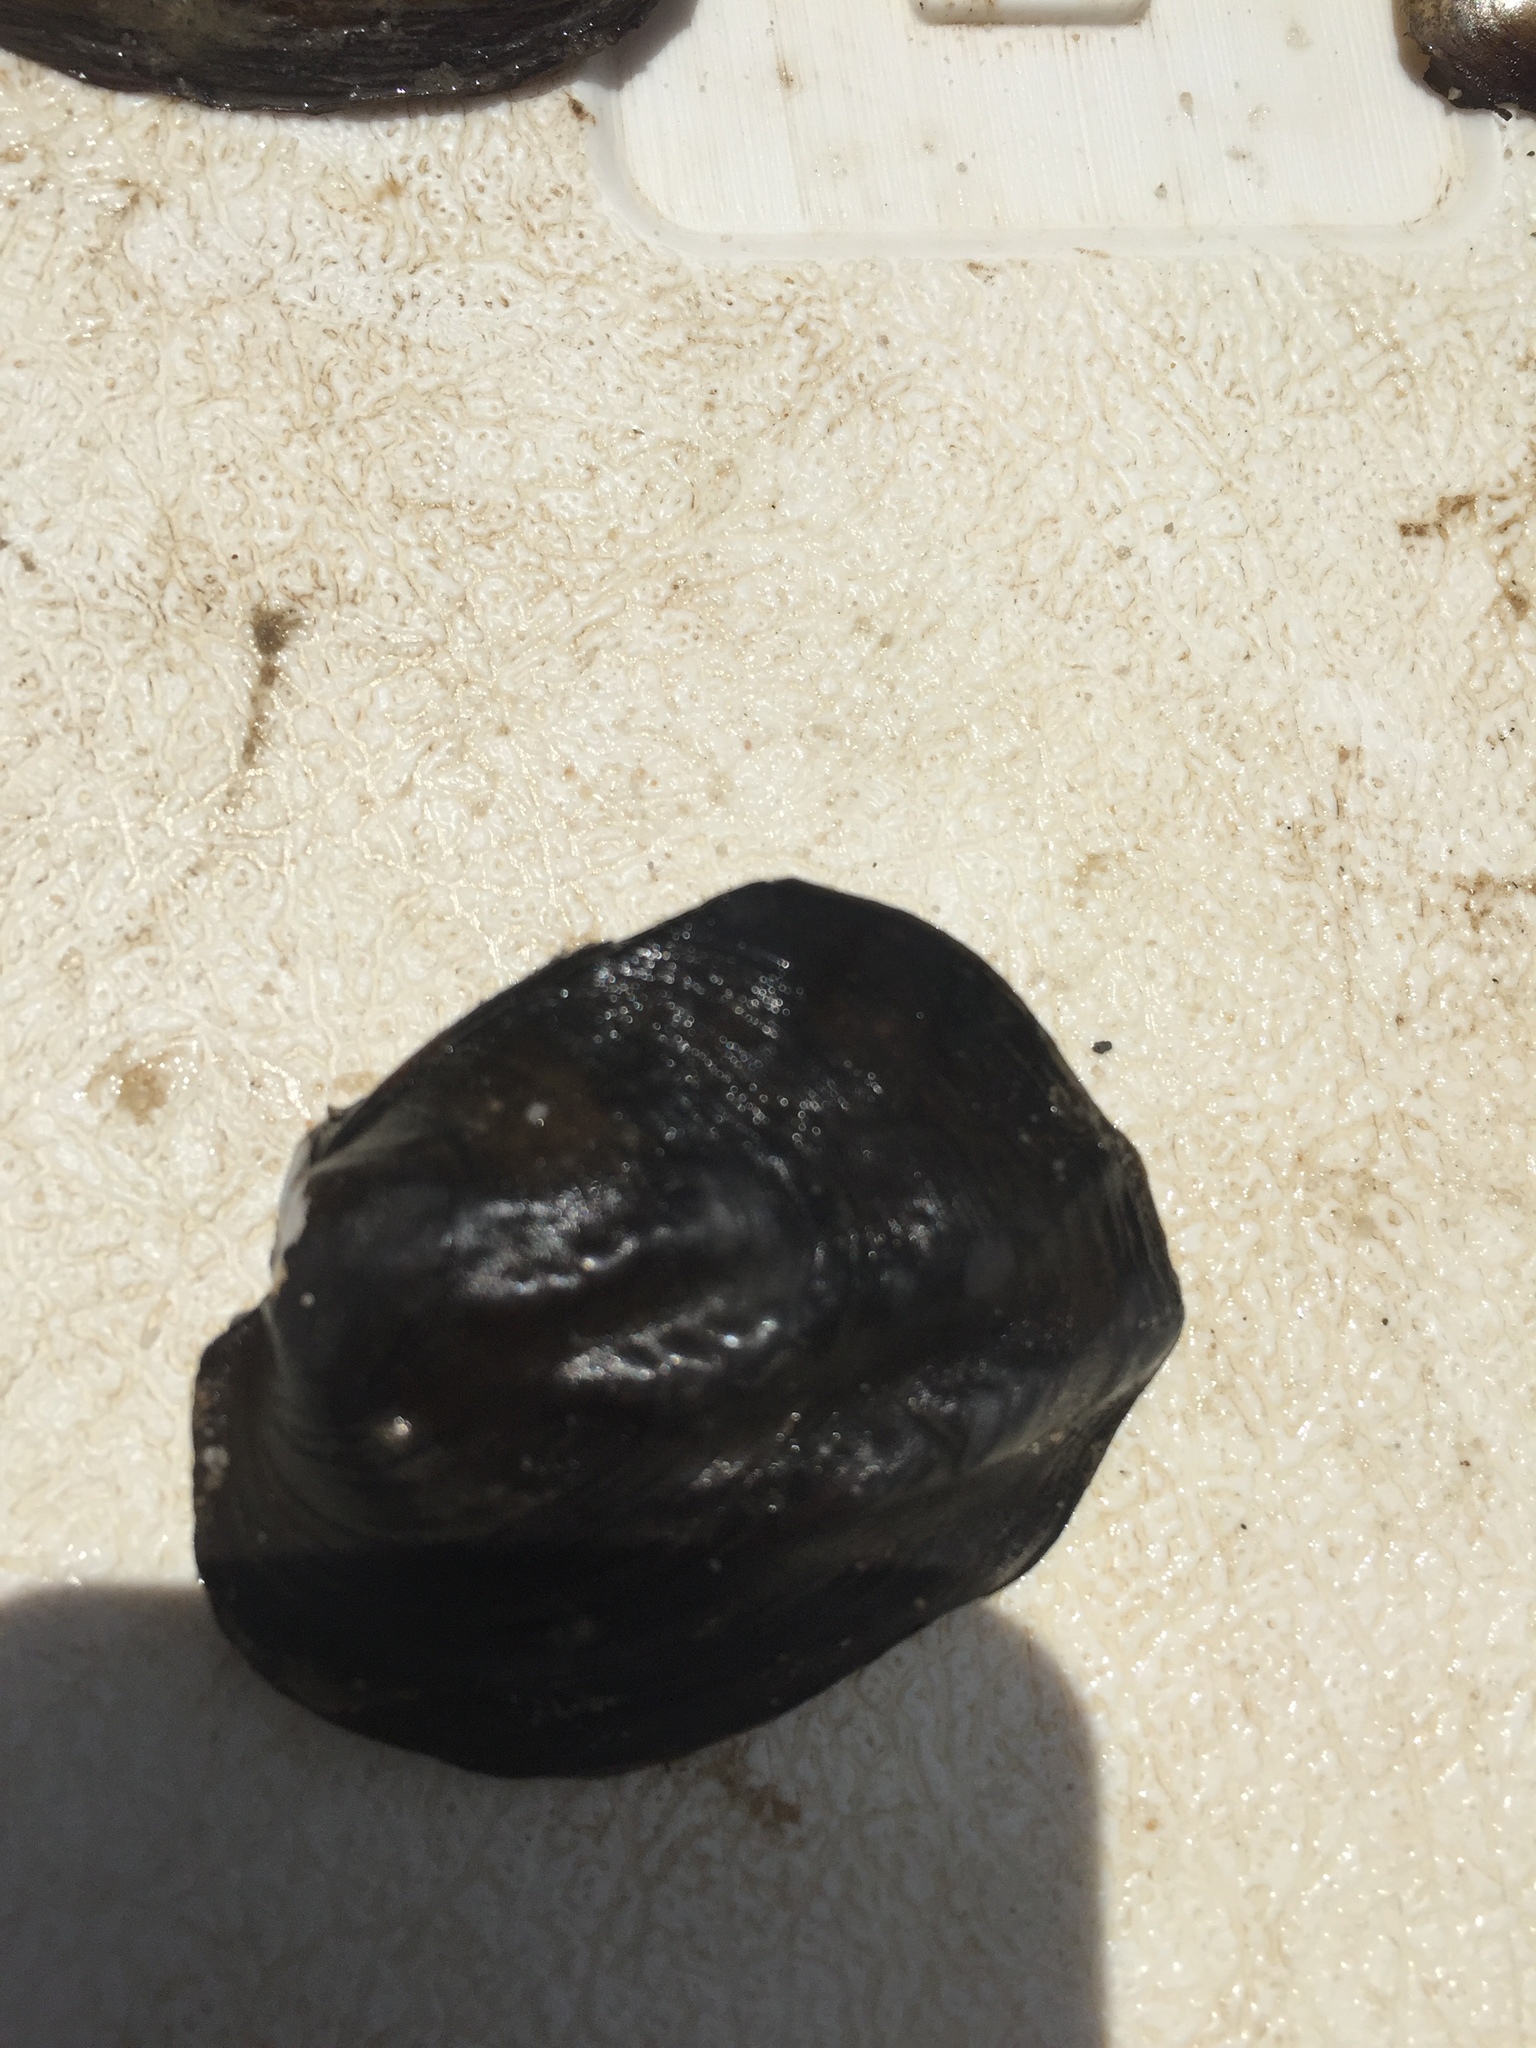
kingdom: Animalia
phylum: Mollusca
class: Bivalvia
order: Unionida
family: Unionidae
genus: Amblema
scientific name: Amblema plicata
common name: Threeridge
